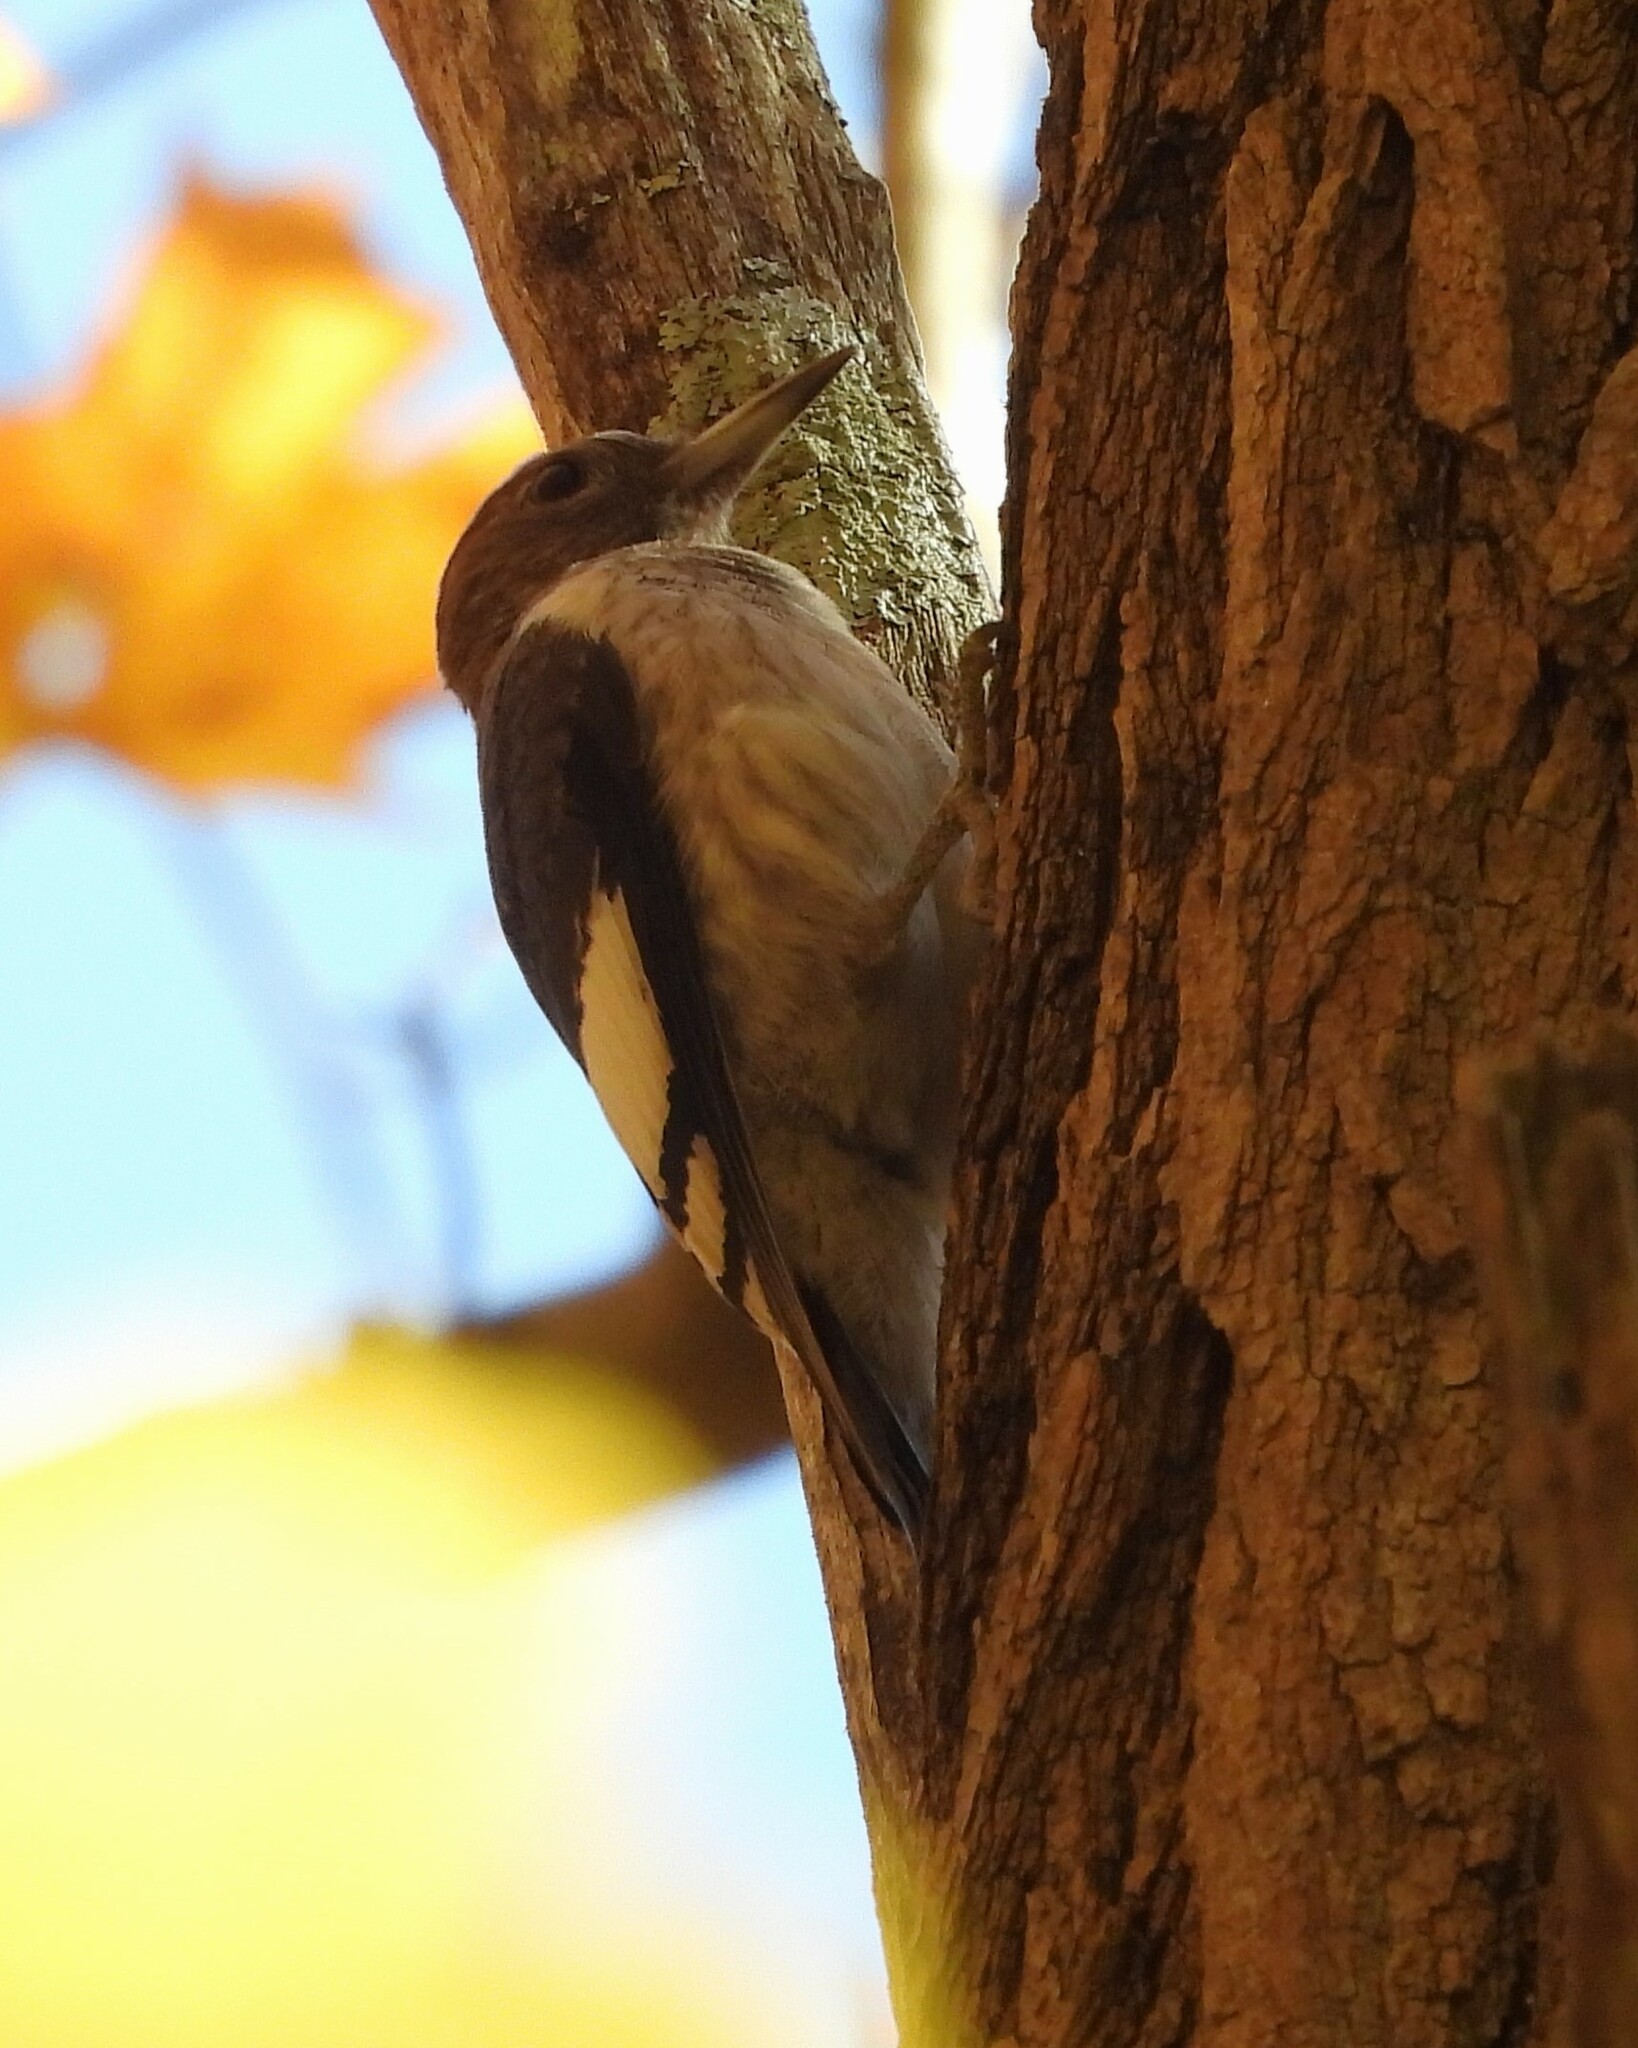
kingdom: Animalia
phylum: Chordata
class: Aves
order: Piciformes
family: Picidae
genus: Melanerpes
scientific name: Melanerpes erythrocephalus
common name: Red-headed woodpecker
